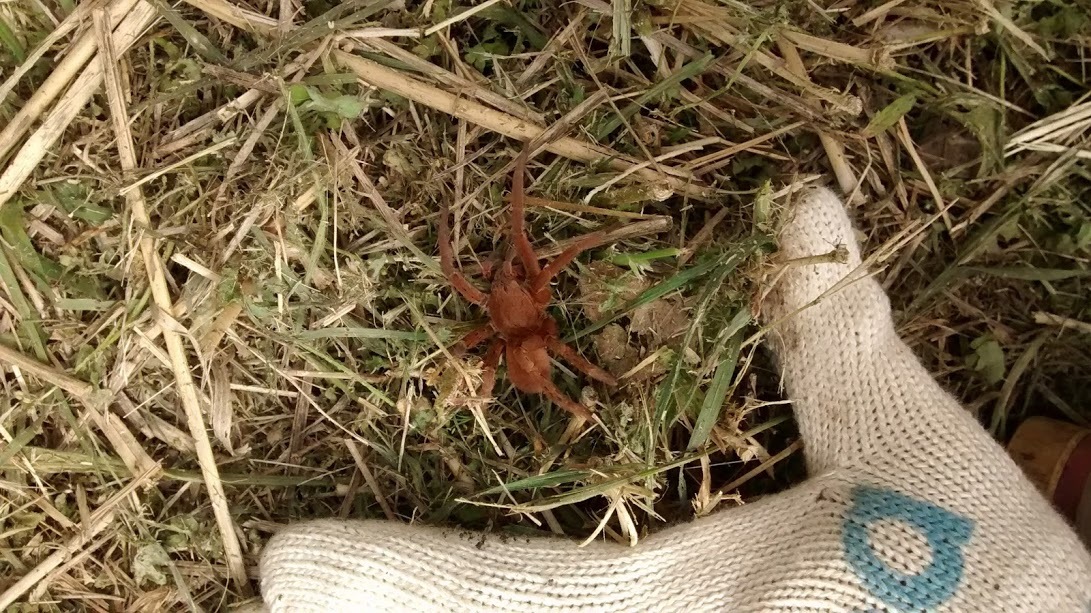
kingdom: Animalia
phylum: Arthropoda
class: Arachnida
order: Araneae
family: Ctenidae
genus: Ancylometes
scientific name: Ancylometes concolor
